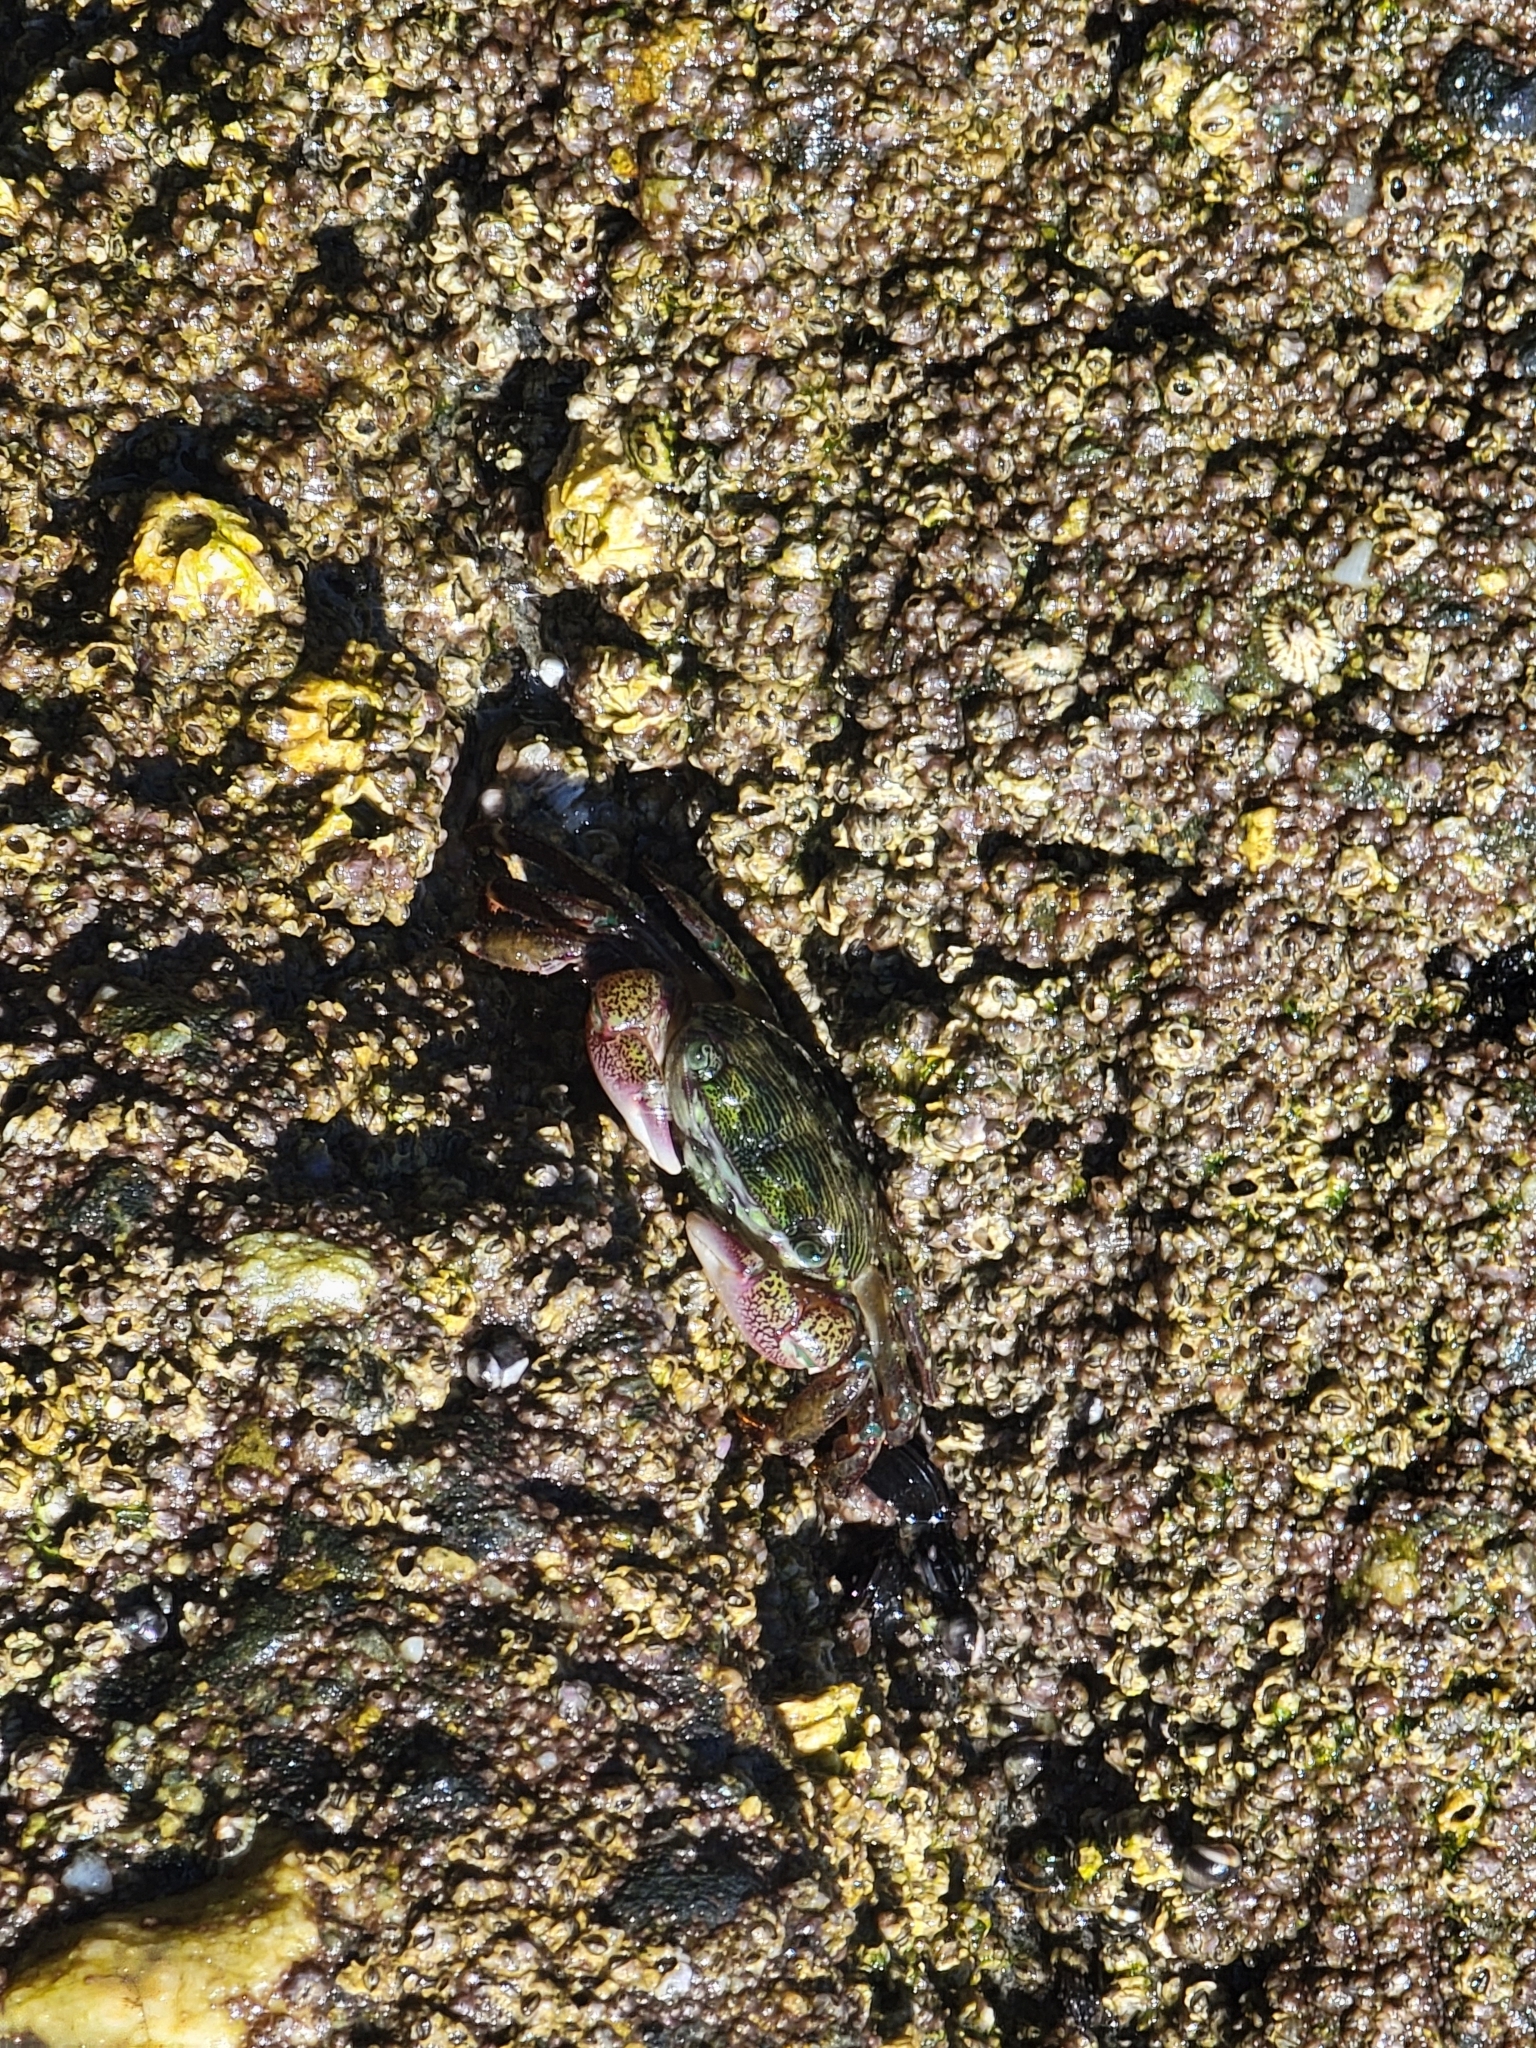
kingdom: Animalia
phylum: Arthropoda
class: Malacostraca
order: Decapoda
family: Grapsidae
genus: Pachygrapsus
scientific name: Pachygrapsus crassipes
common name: Striped shore crab
